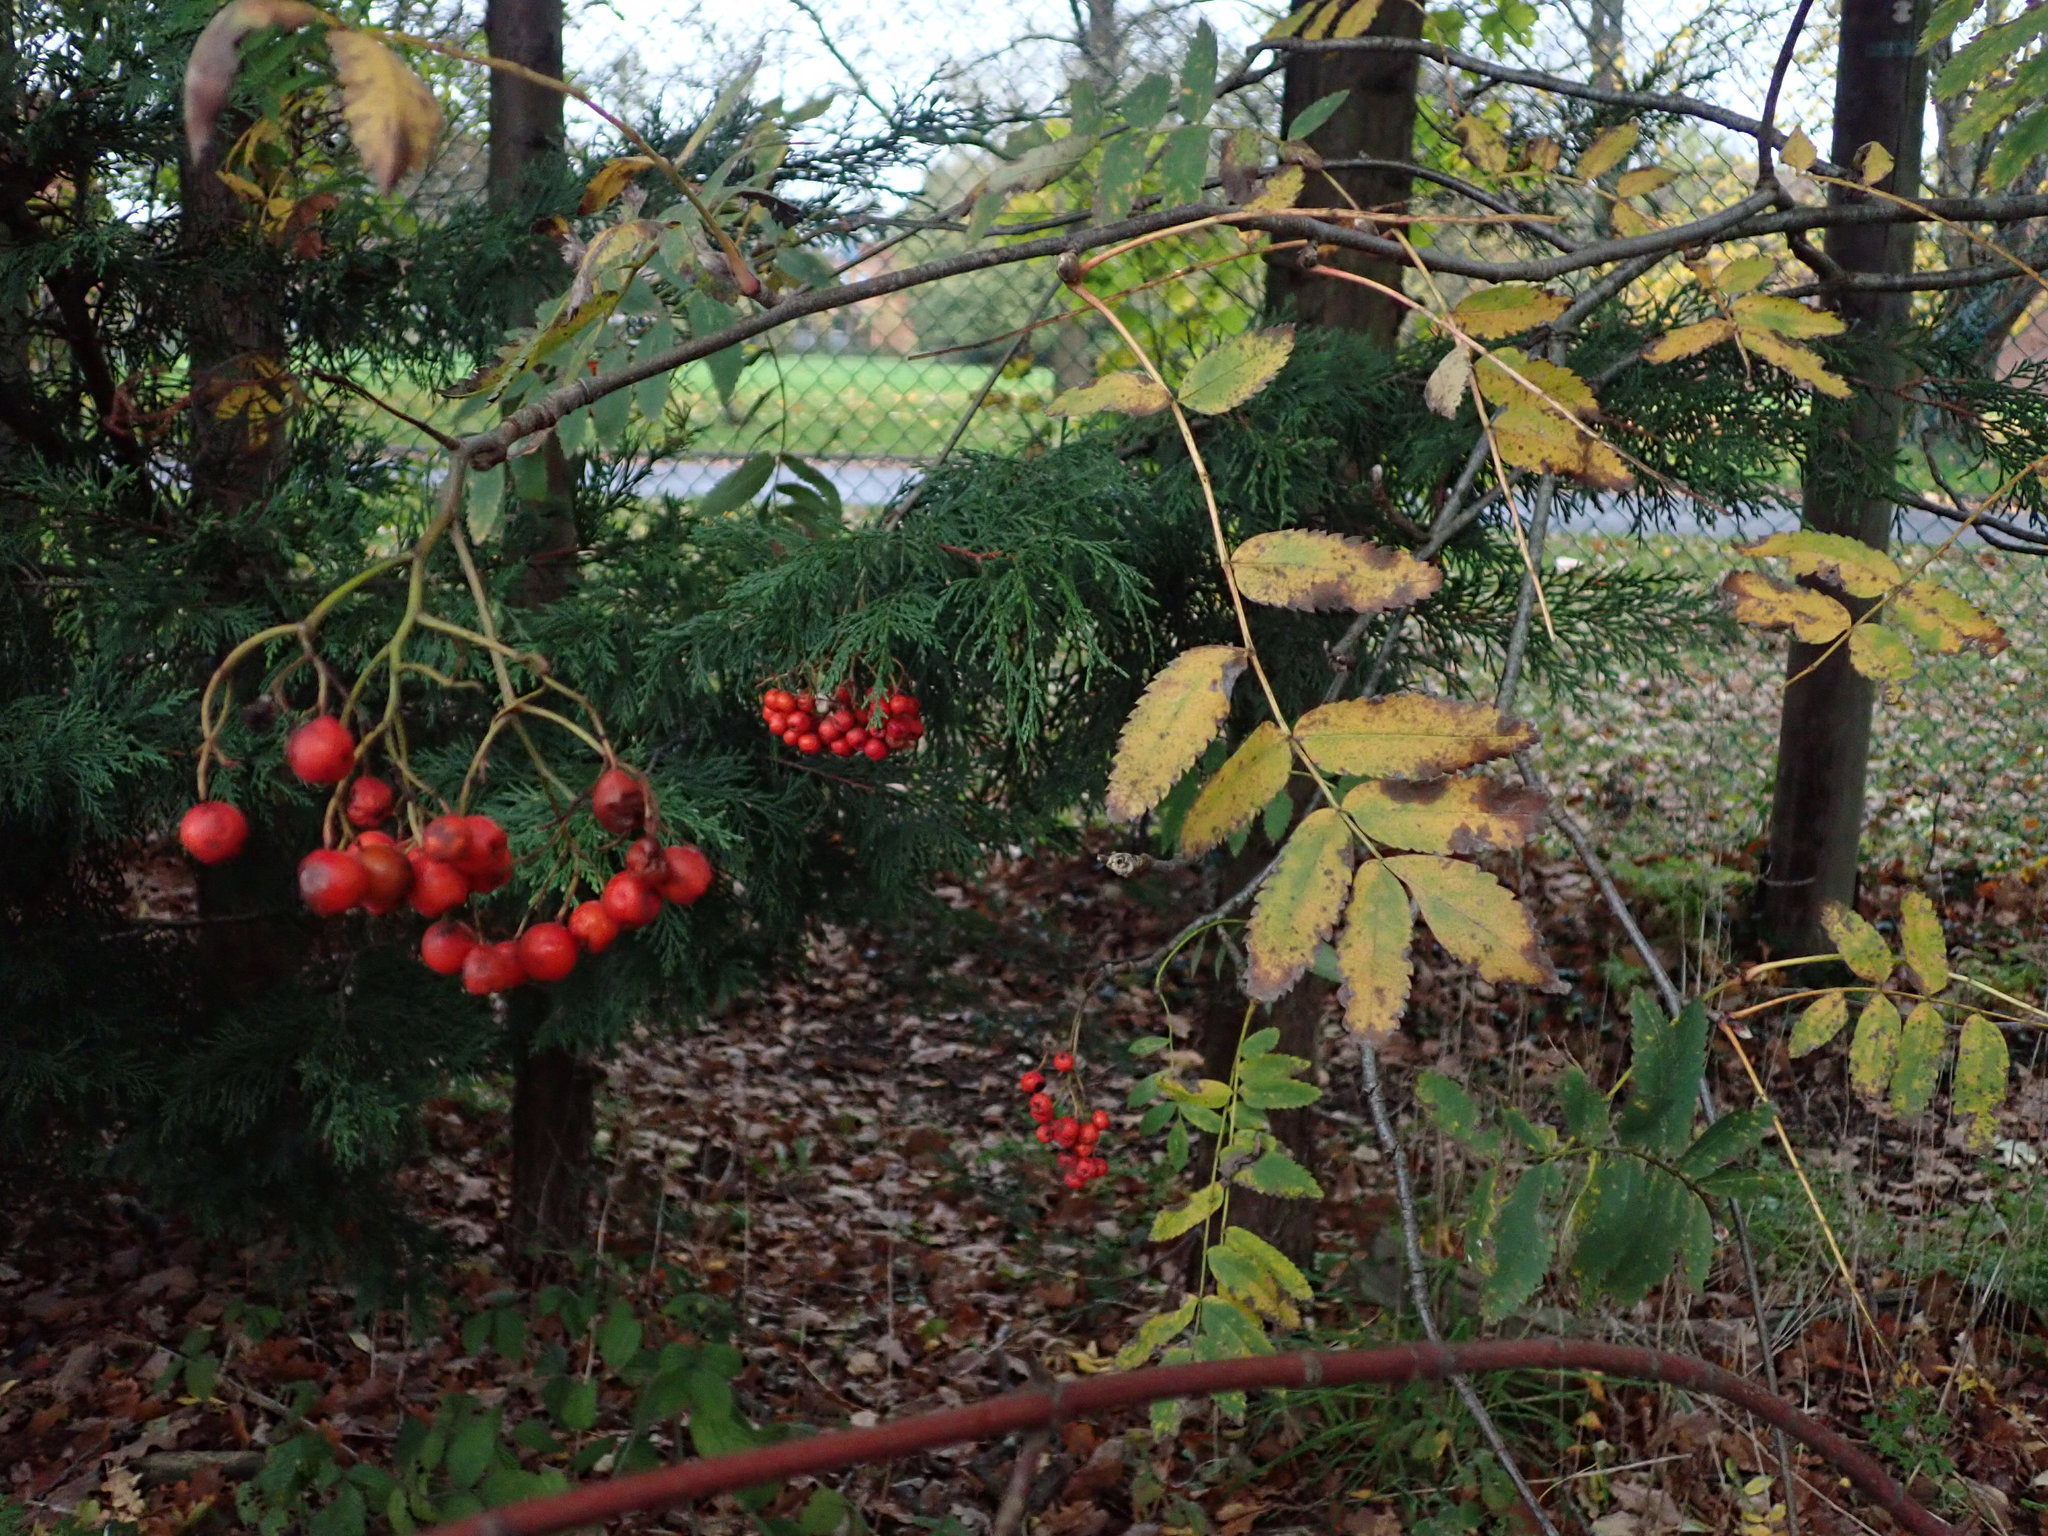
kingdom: Plantae
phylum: Tracheophyta
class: Magnoliopsida
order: Rosales
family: Rosaceae
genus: Sorbus
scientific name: Sorbus aucuparia
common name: Rowan
